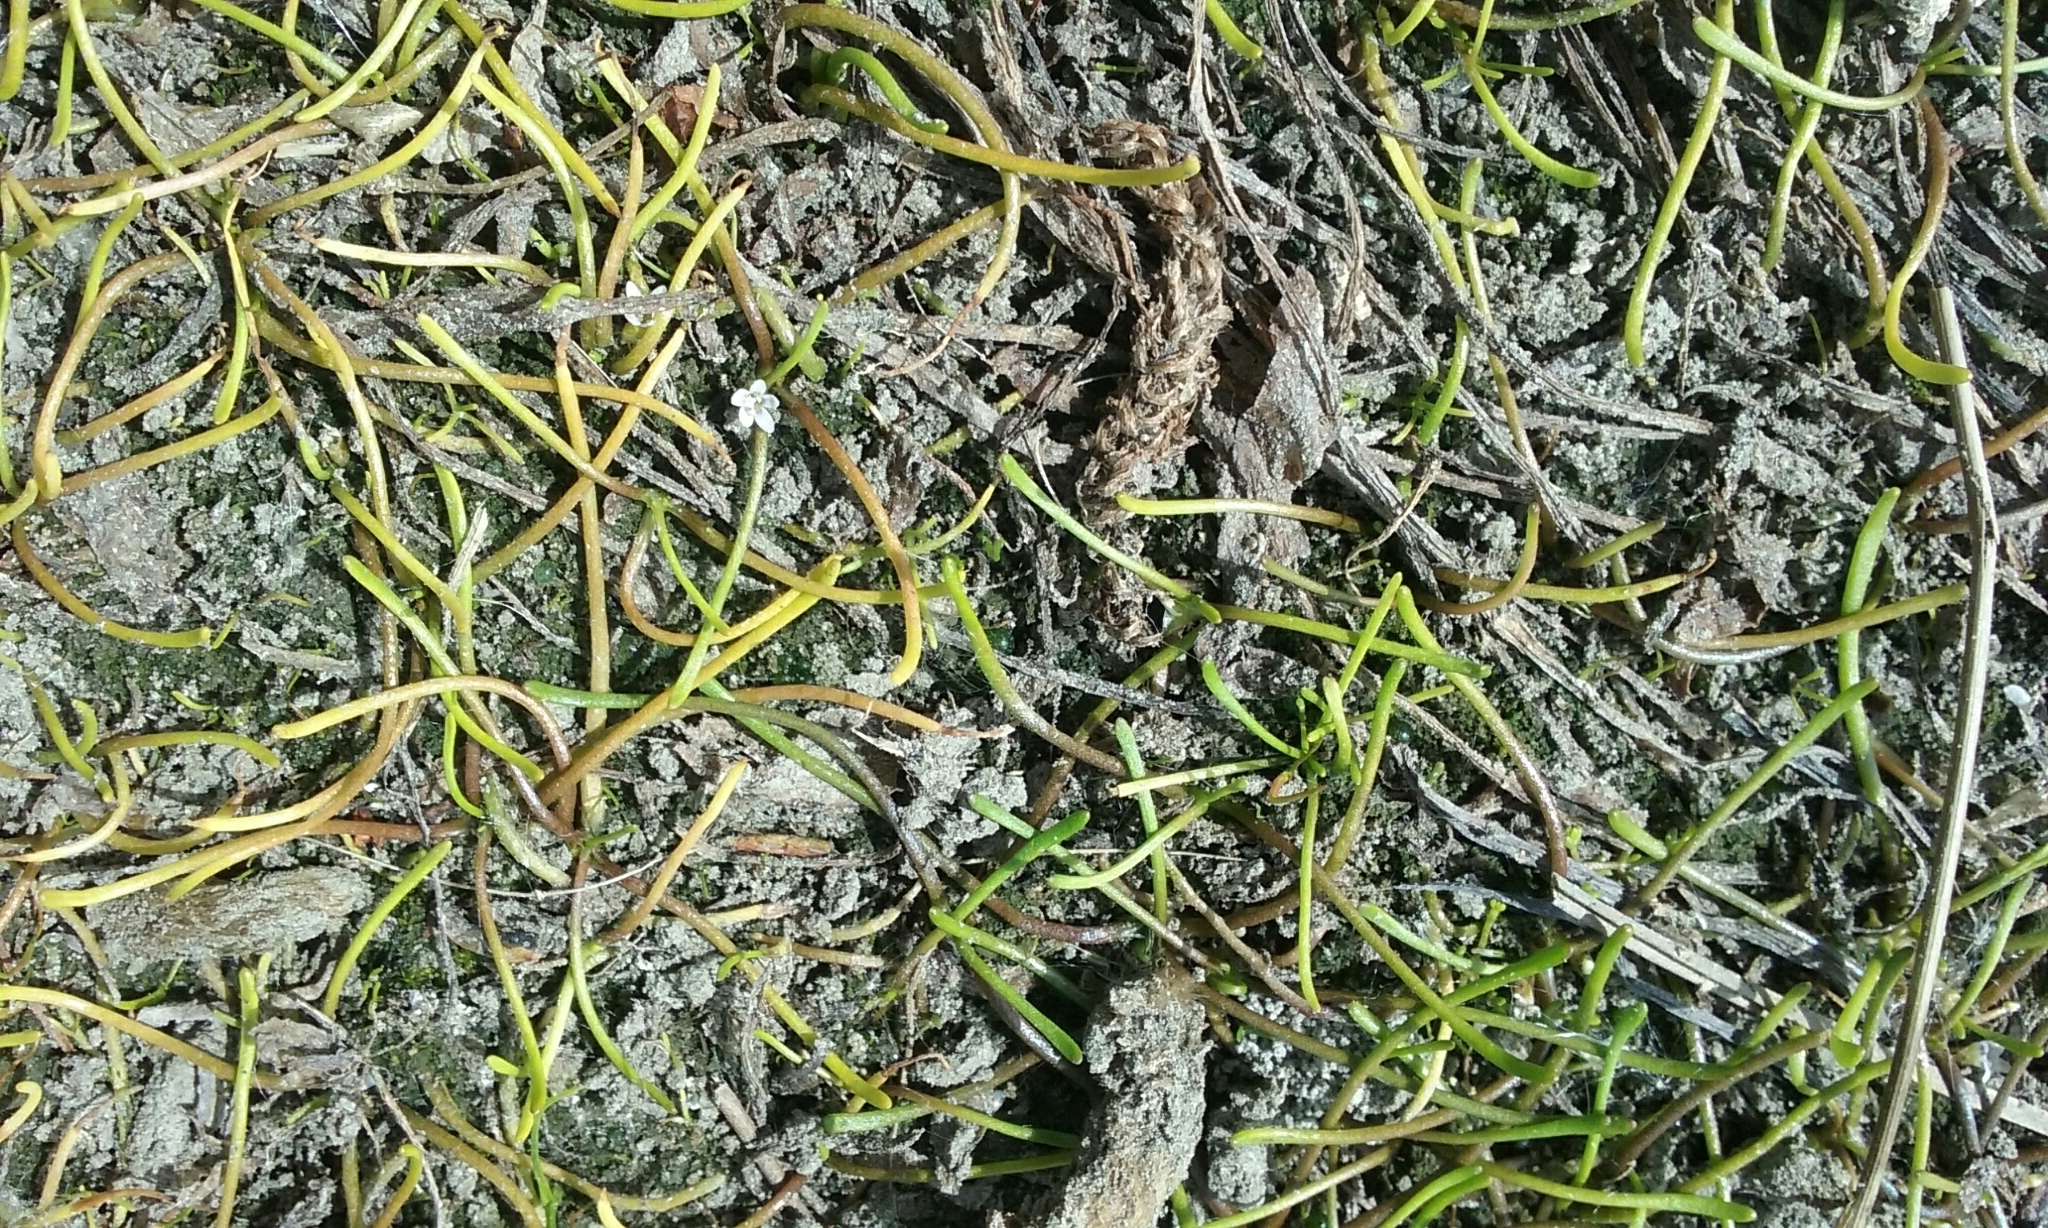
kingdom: Plantae
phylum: Tracheophyta
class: Magnoliopsida
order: Lamiales
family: Scrophulariaceae
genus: Limosella
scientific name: Limosella australis
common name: Welsh mudwort
